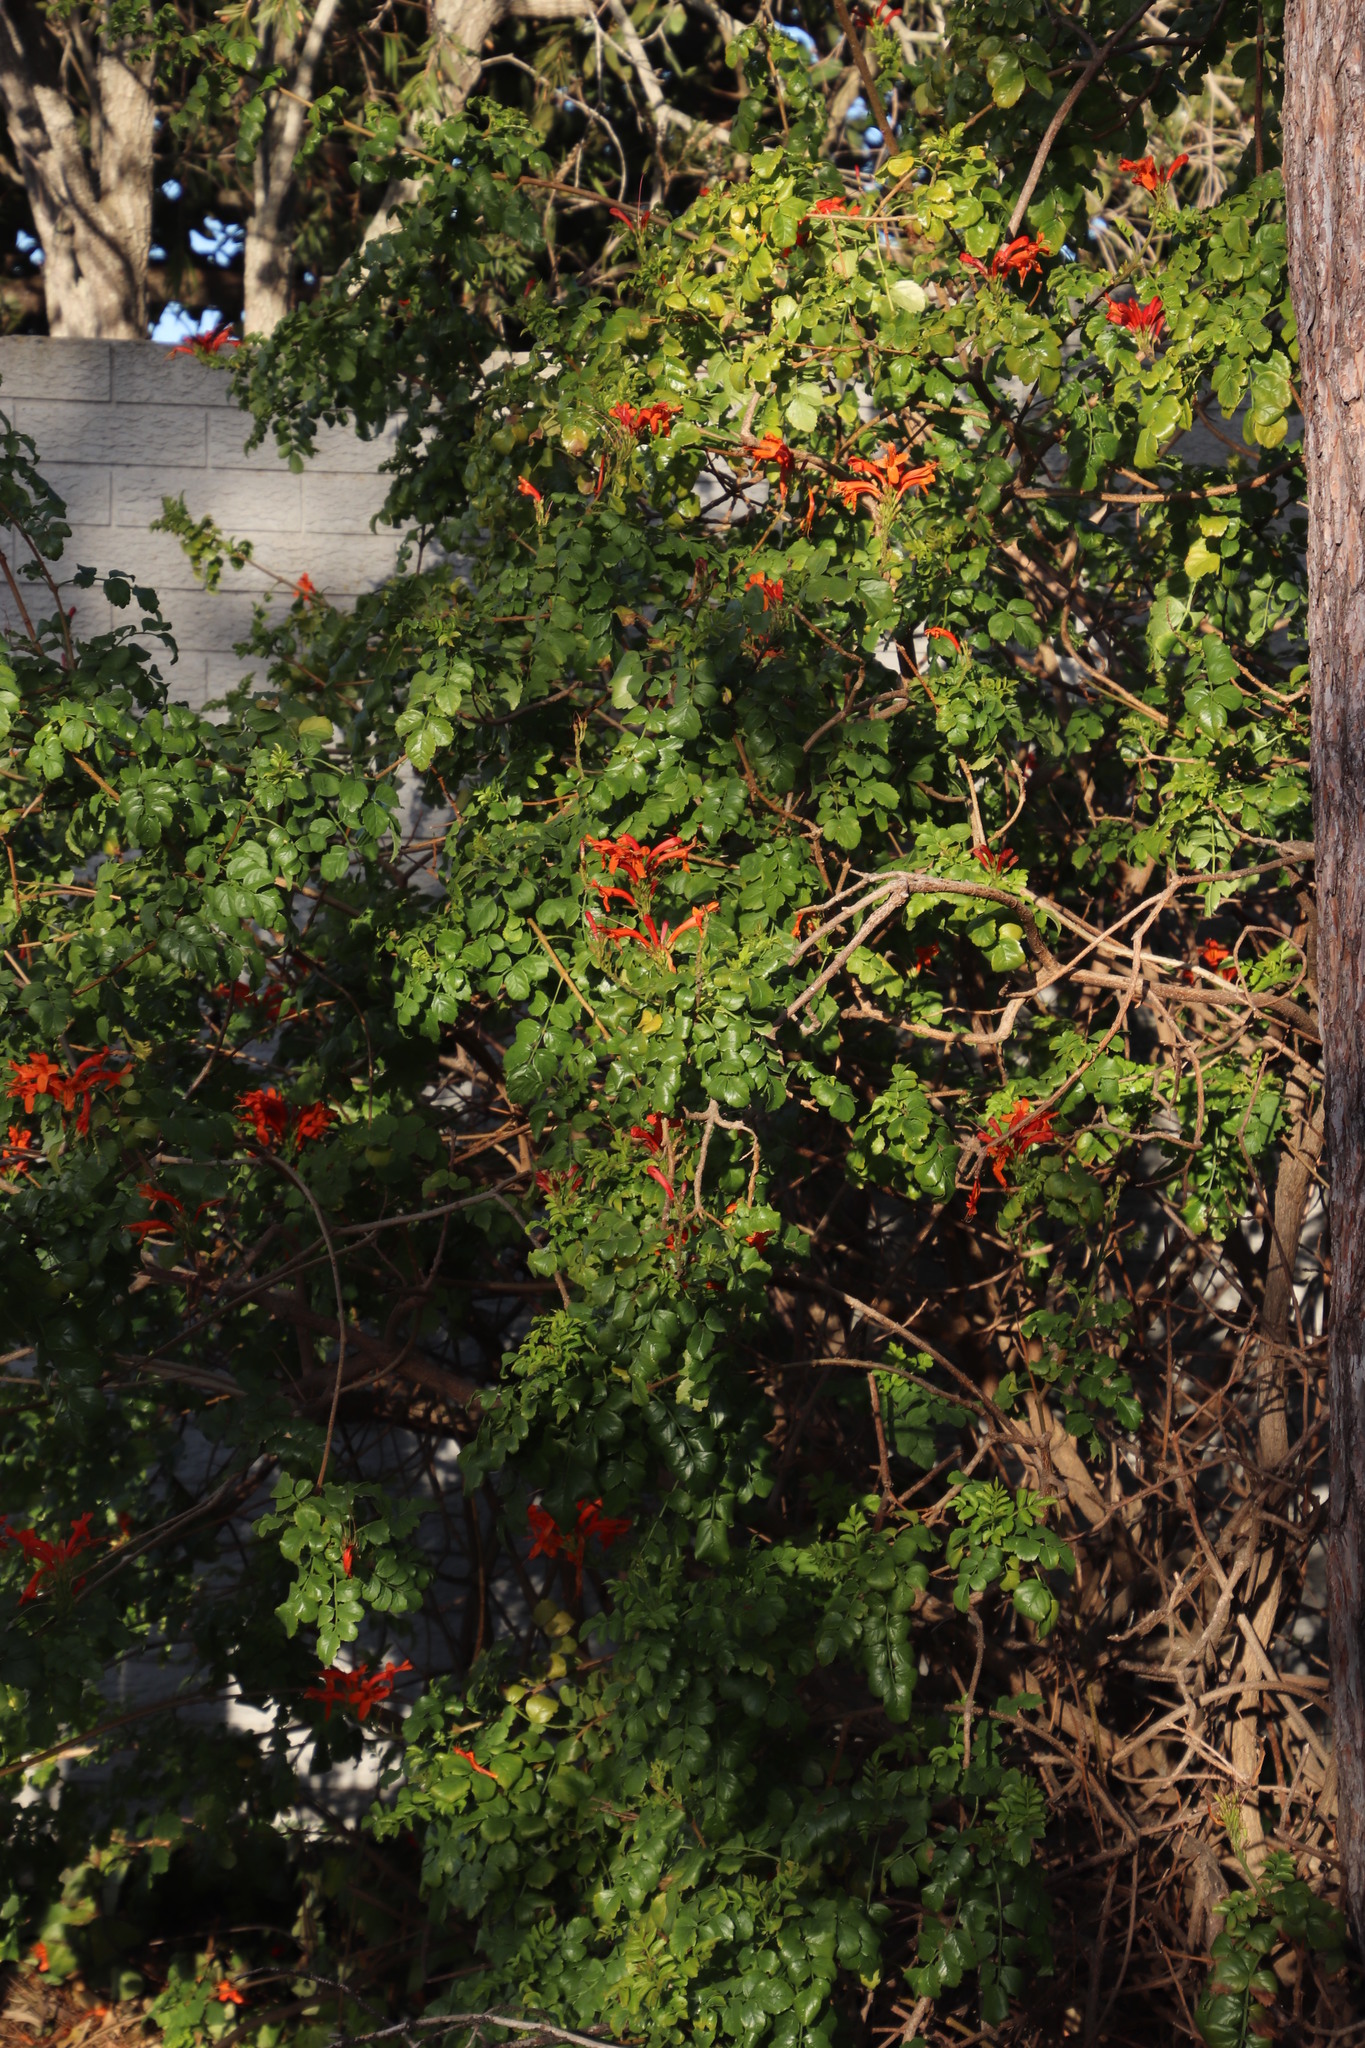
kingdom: Plantae
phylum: Tracheophyta
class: Magnoliopsida
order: Lamiales
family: Bignoniaceae
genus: Tecomaria
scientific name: Tecomaria capensis
